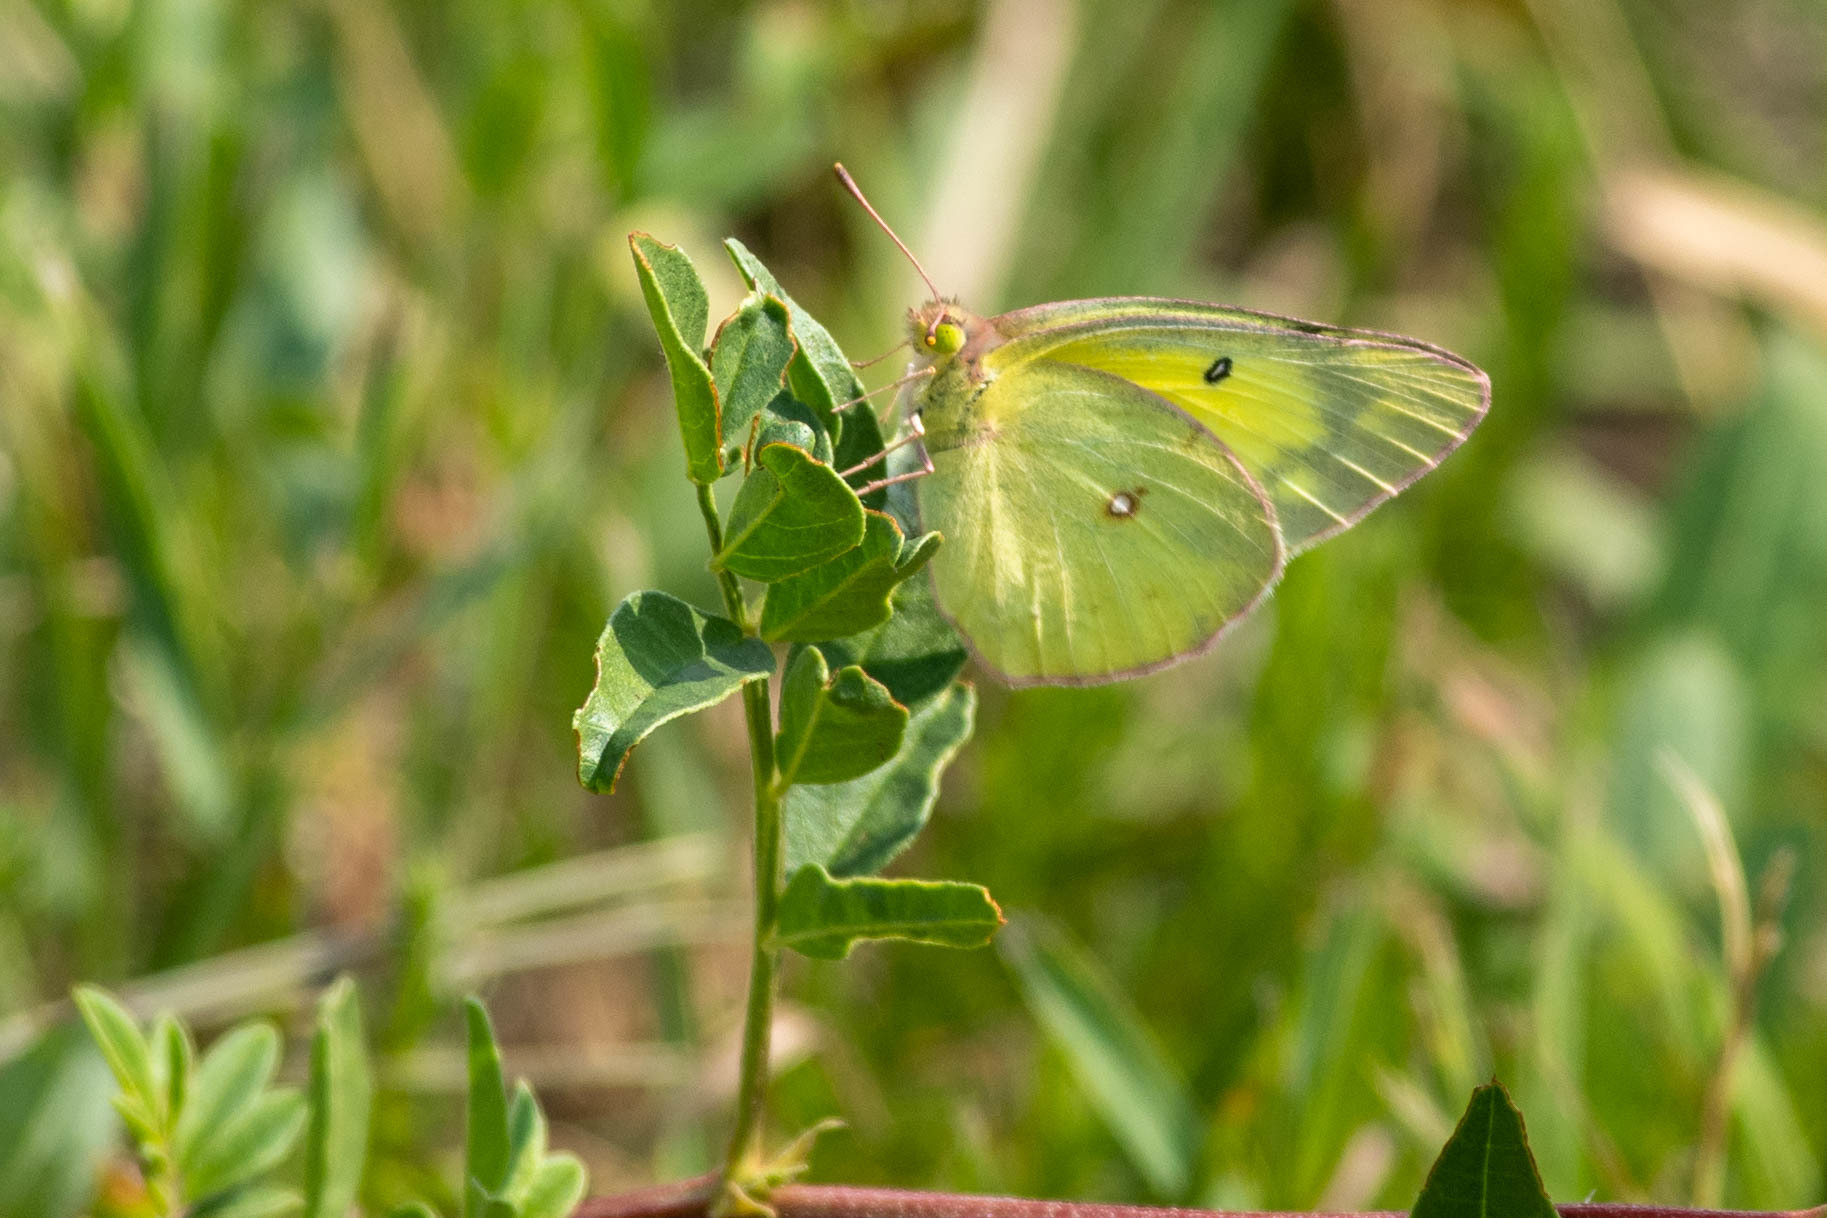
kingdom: Animalia
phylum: Arthropoda
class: Insecta
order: Lepidoptera
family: Pieridae
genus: Colias
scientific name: Colias philodice
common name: Clouded sulphur
